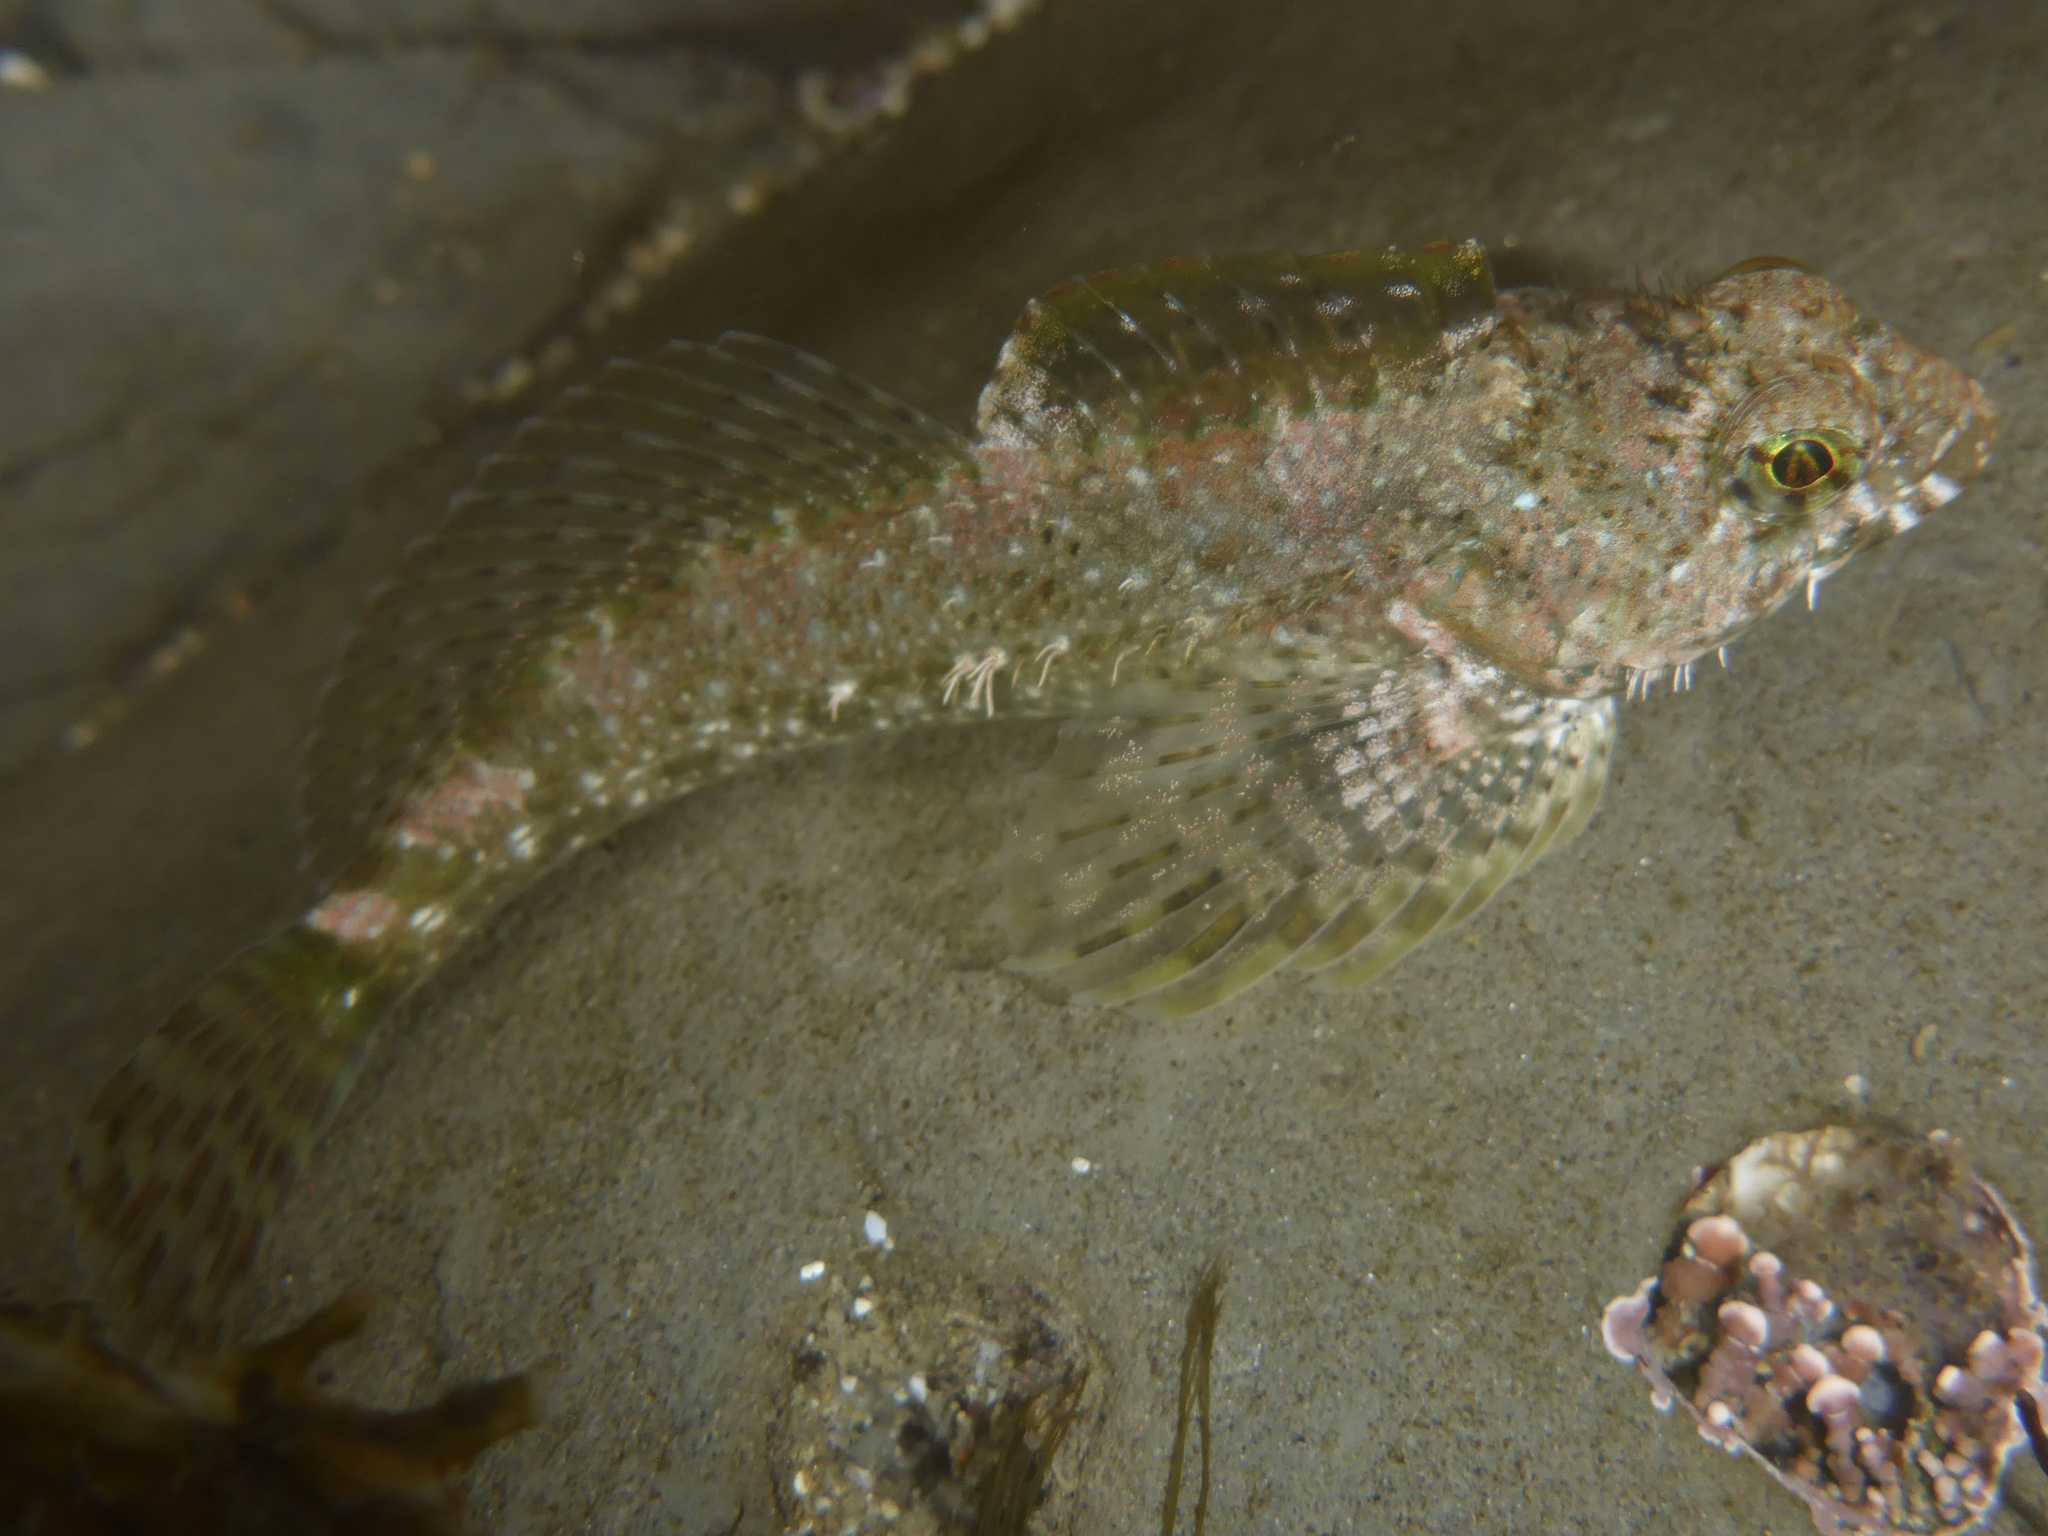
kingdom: Animalia
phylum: Chordata
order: Scorpaeniformes
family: Cottidae
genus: Clinocottus
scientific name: Clinocottus analis
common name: Woolly sculpin
